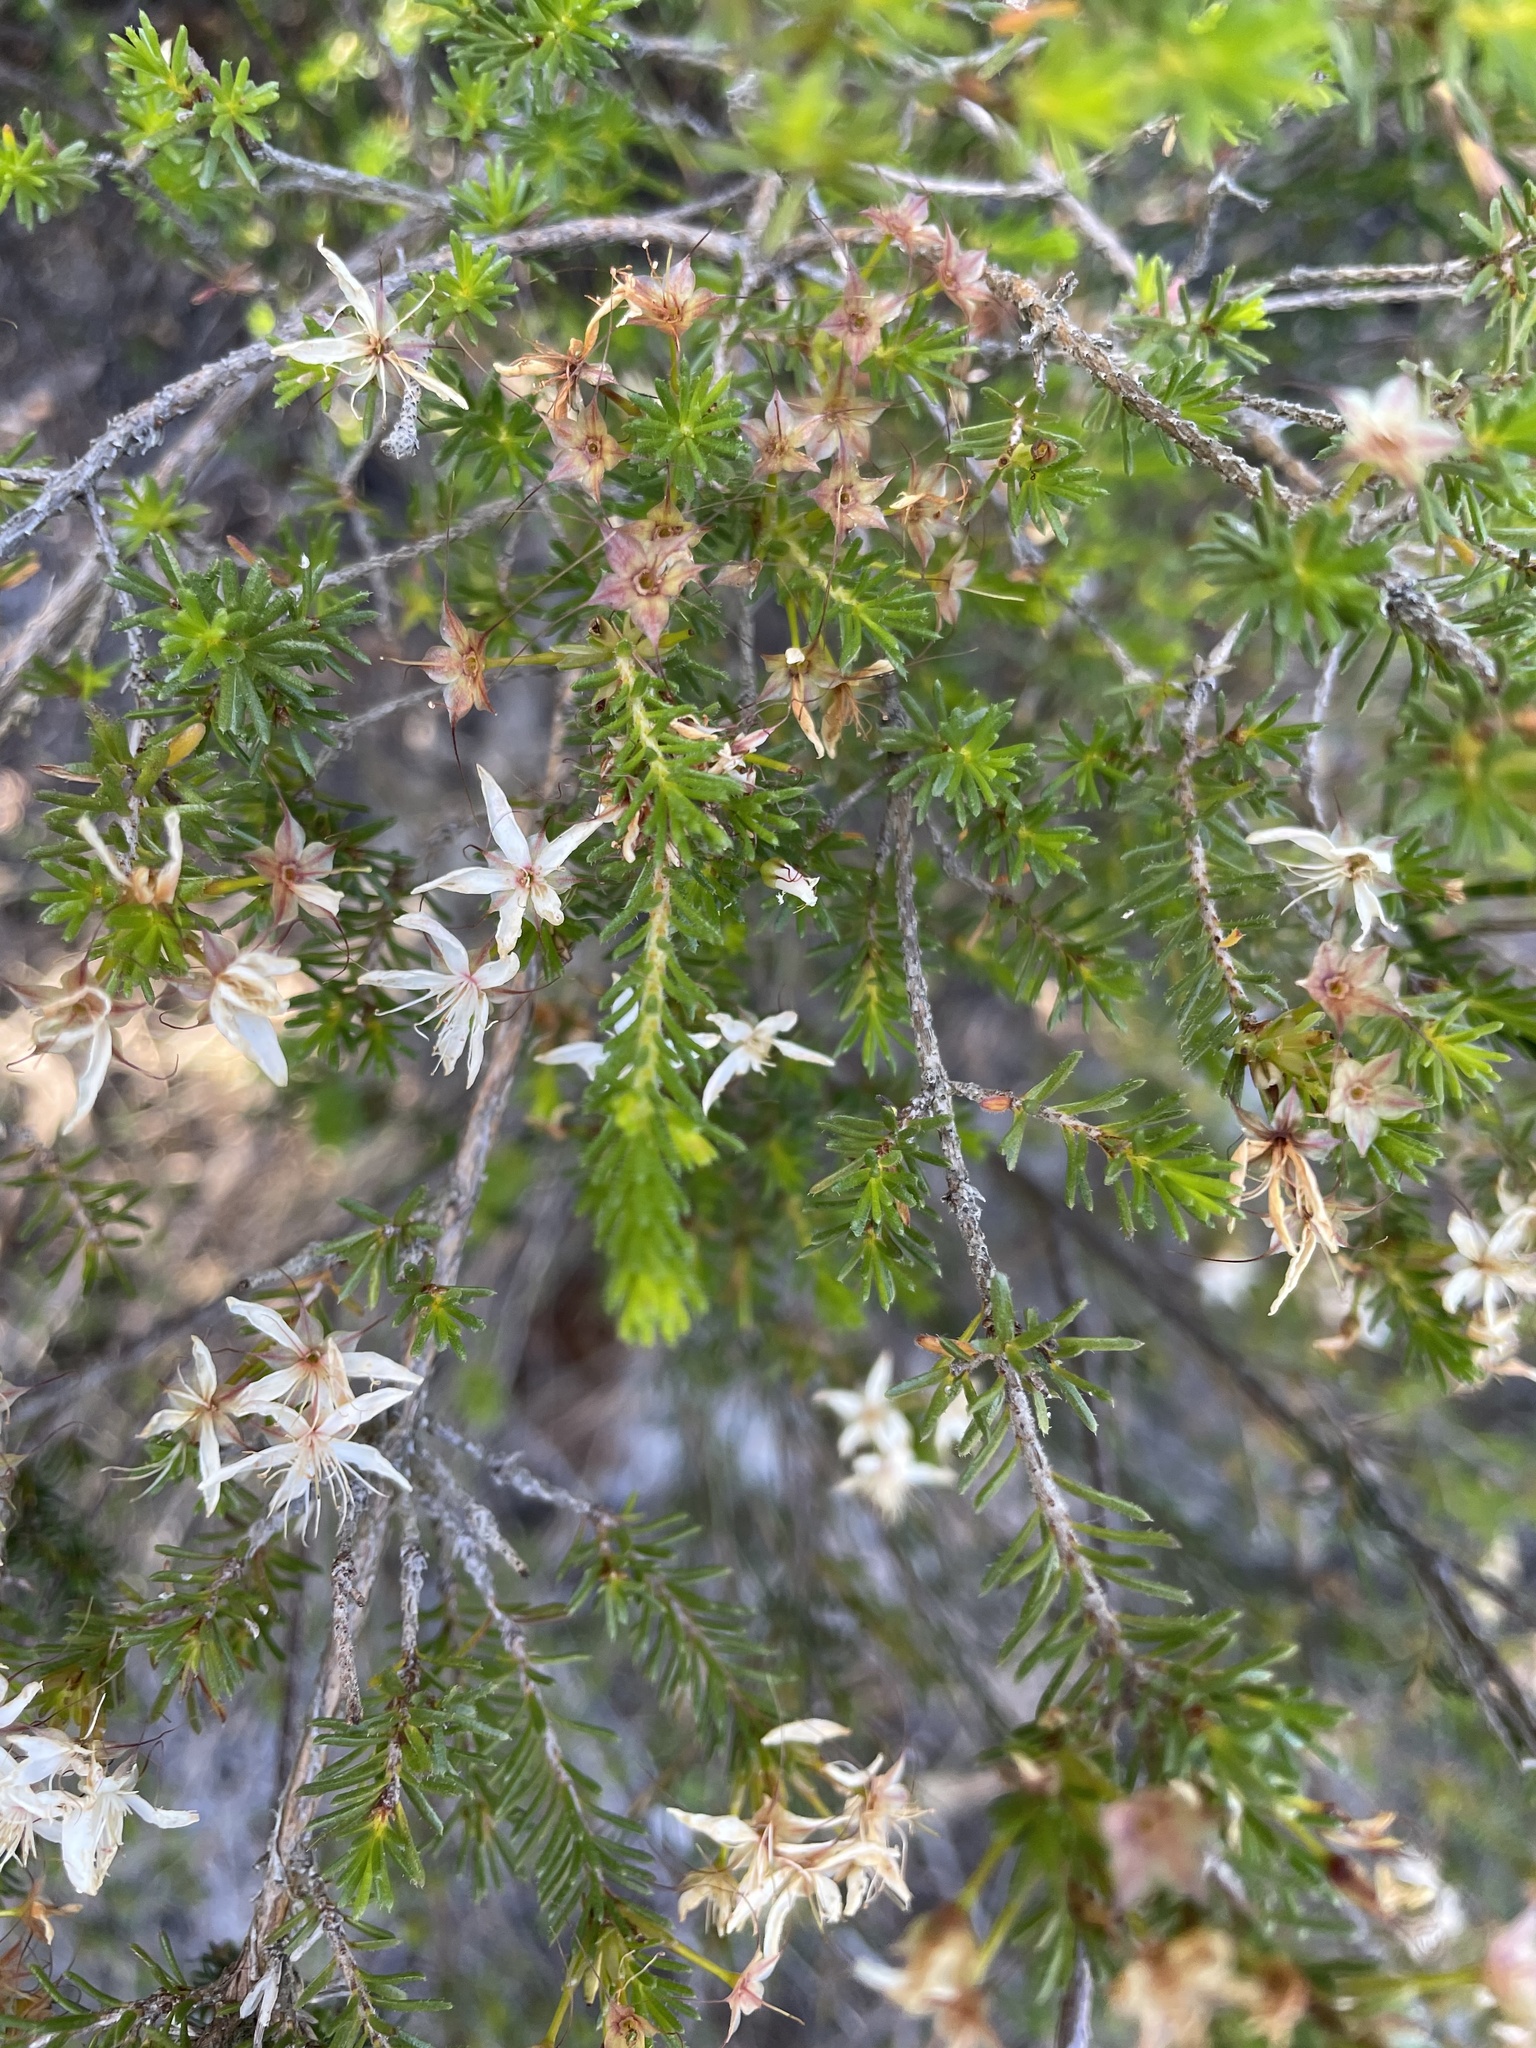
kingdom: Plantae
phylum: Tracheophyta
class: Magnoliopsida
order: Myrtales
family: Myrtaceae
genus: Calytrix
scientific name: Calytrix tetragona
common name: Common fringe myrtle
